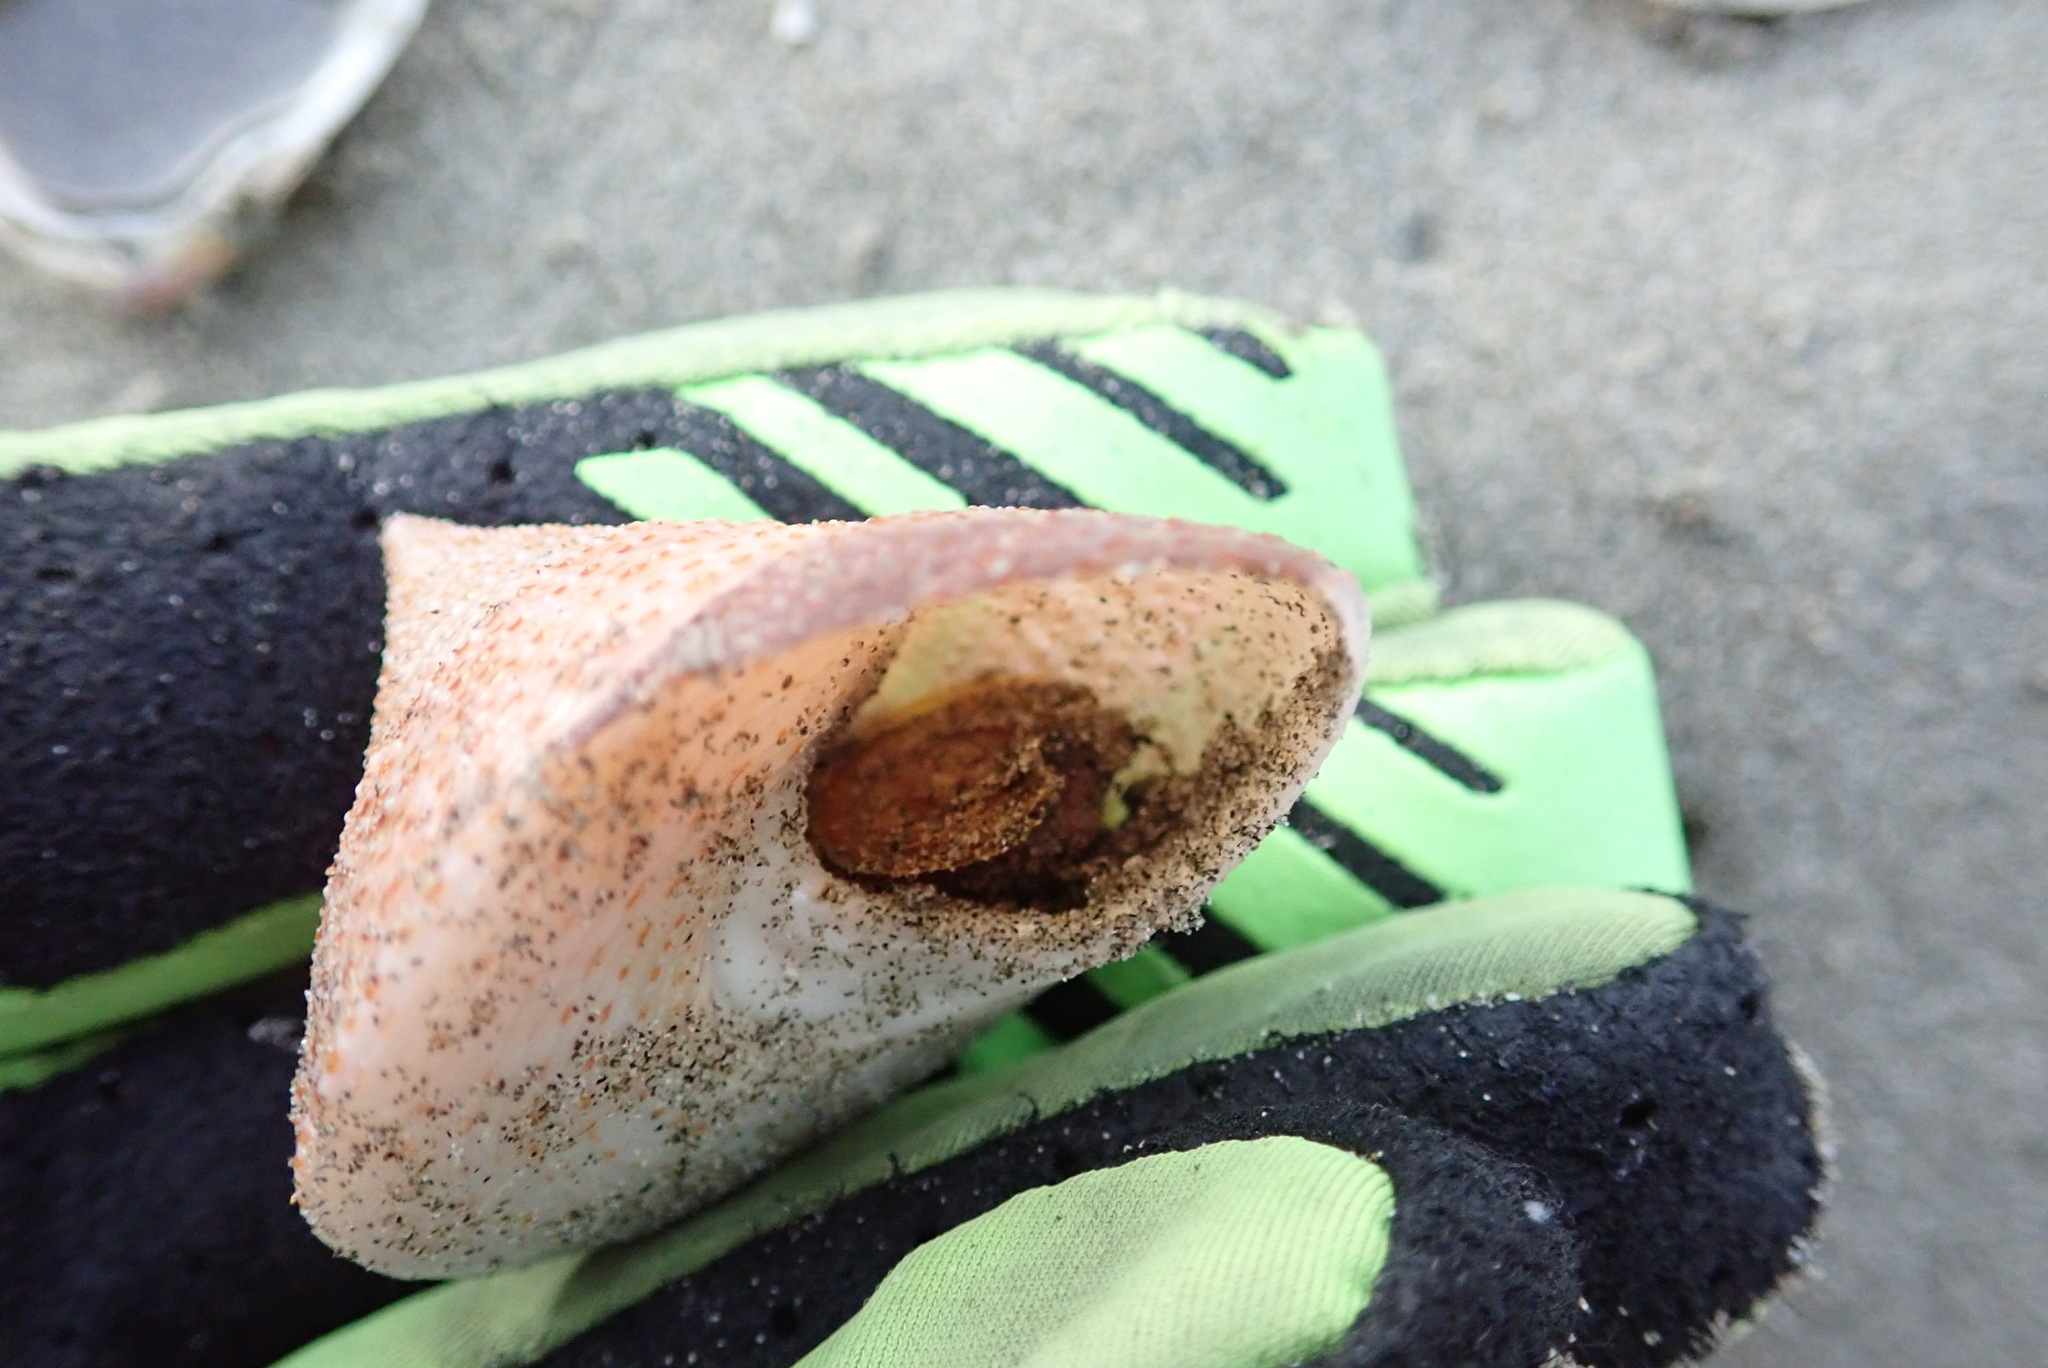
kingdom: Animalia
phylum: Mollusca
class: Gastropoda
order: Trochida
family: Calliostomatidae
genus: Maurea
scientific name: Maurea selecta
